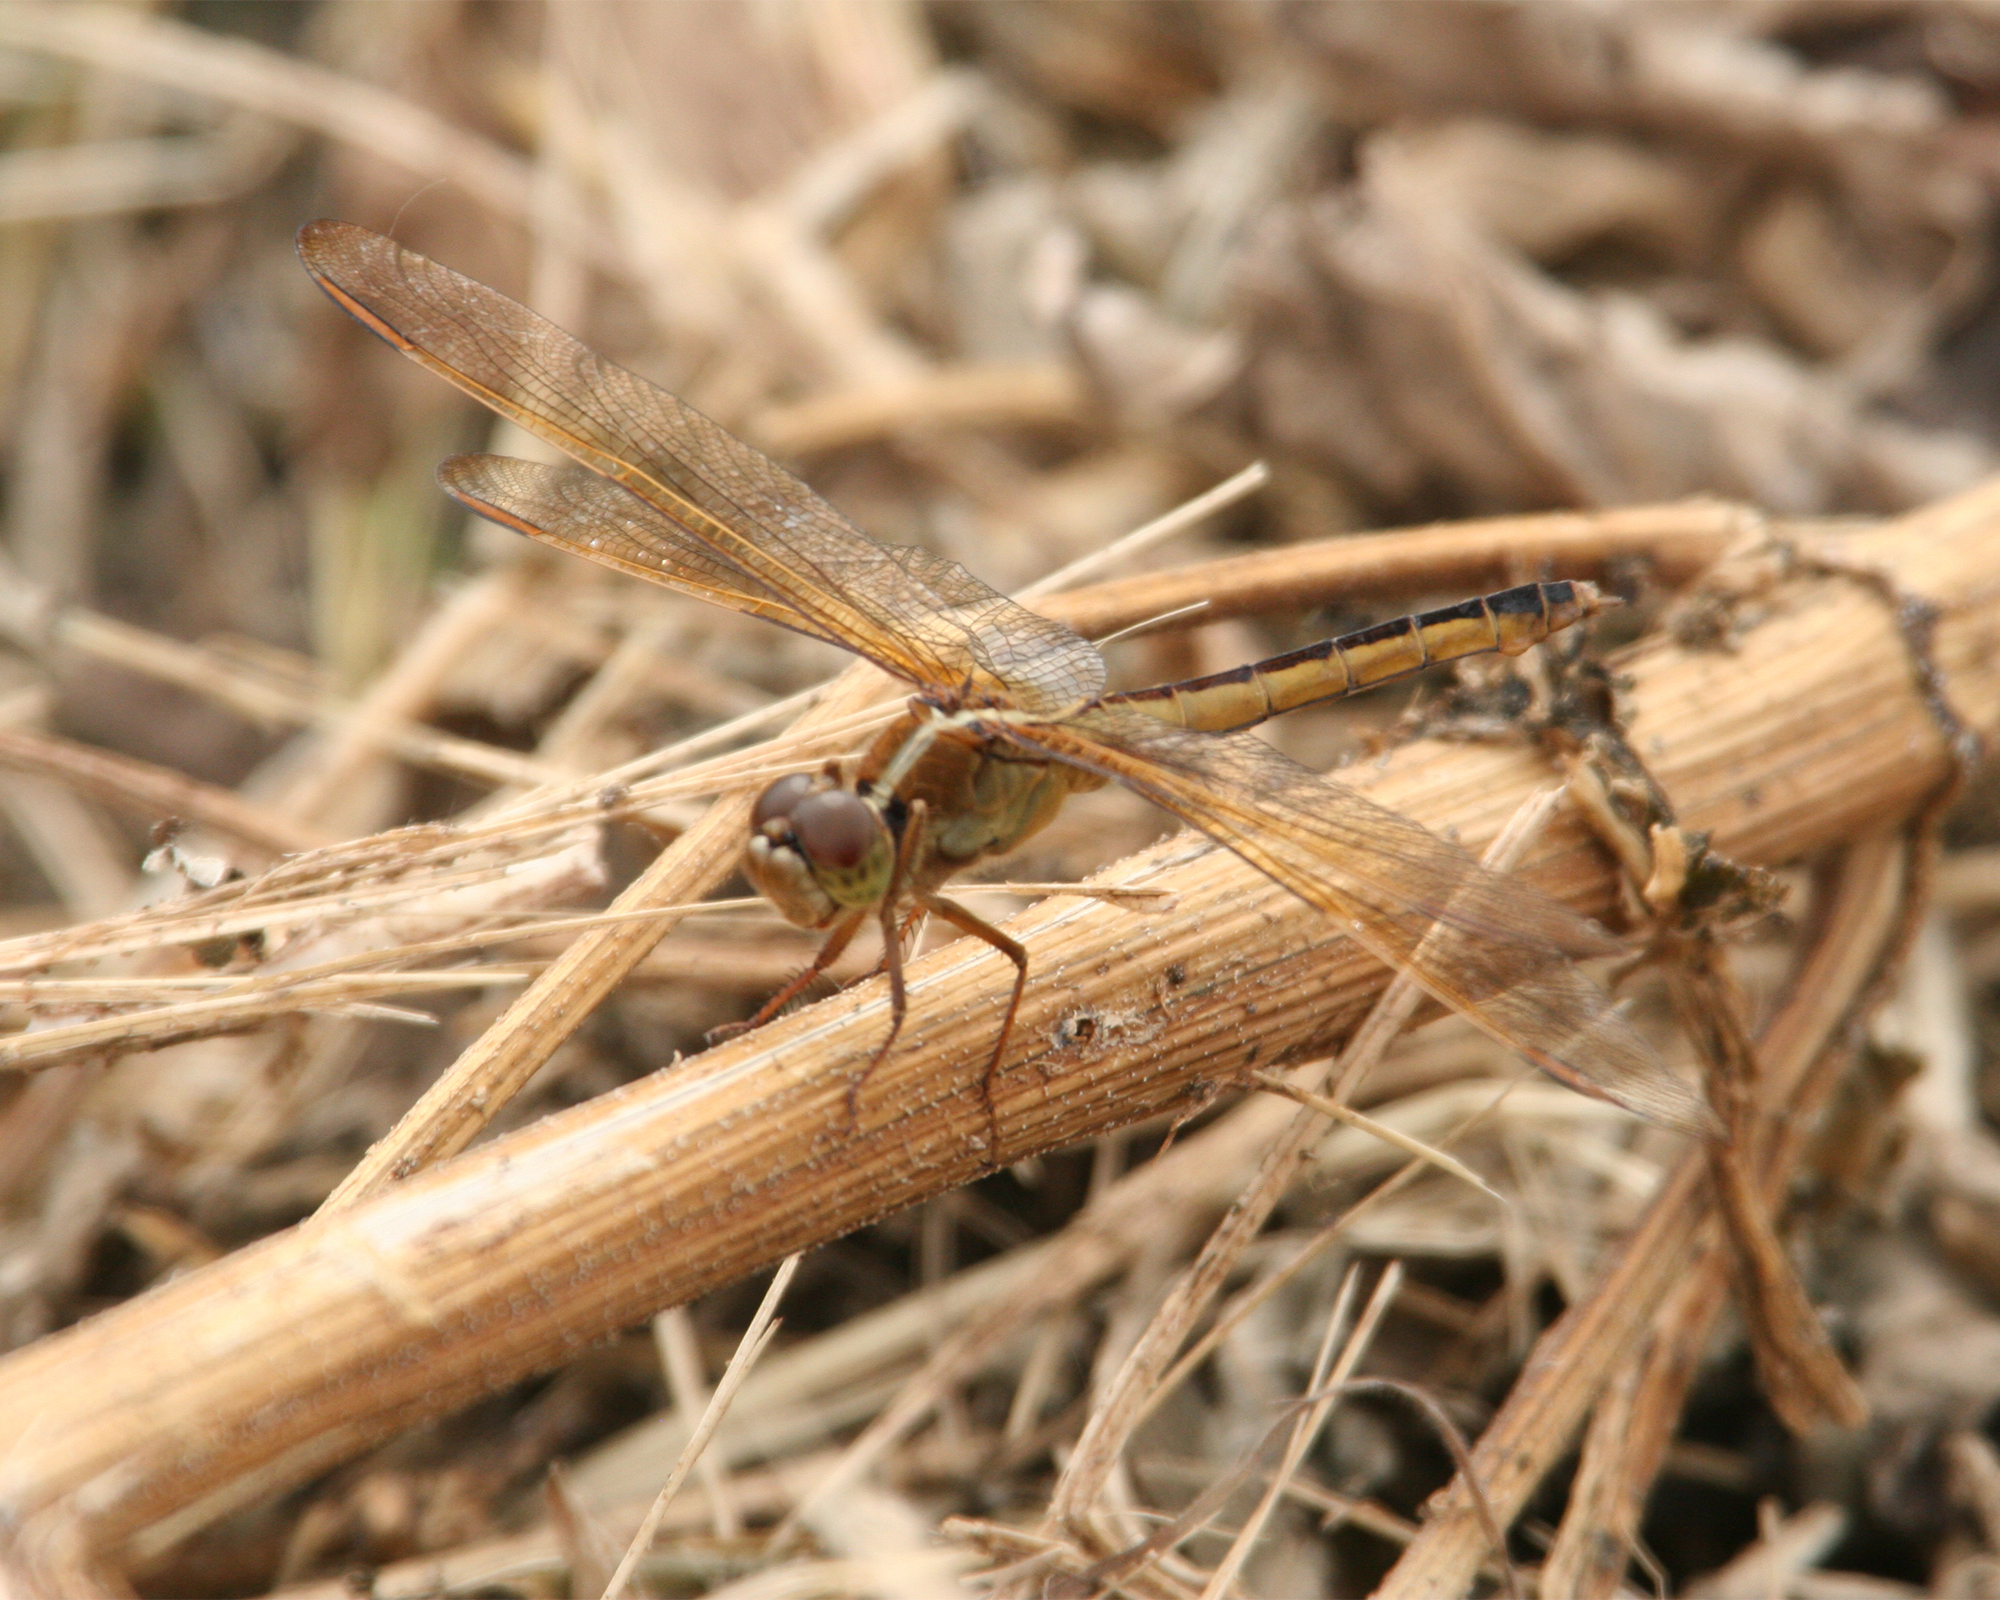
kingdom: Animalia
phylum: Arthropoda
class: Insecta
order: Odonata
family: Libellulidae
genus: Libellula
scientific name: Libellula needhami
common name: Needham's skimmer
